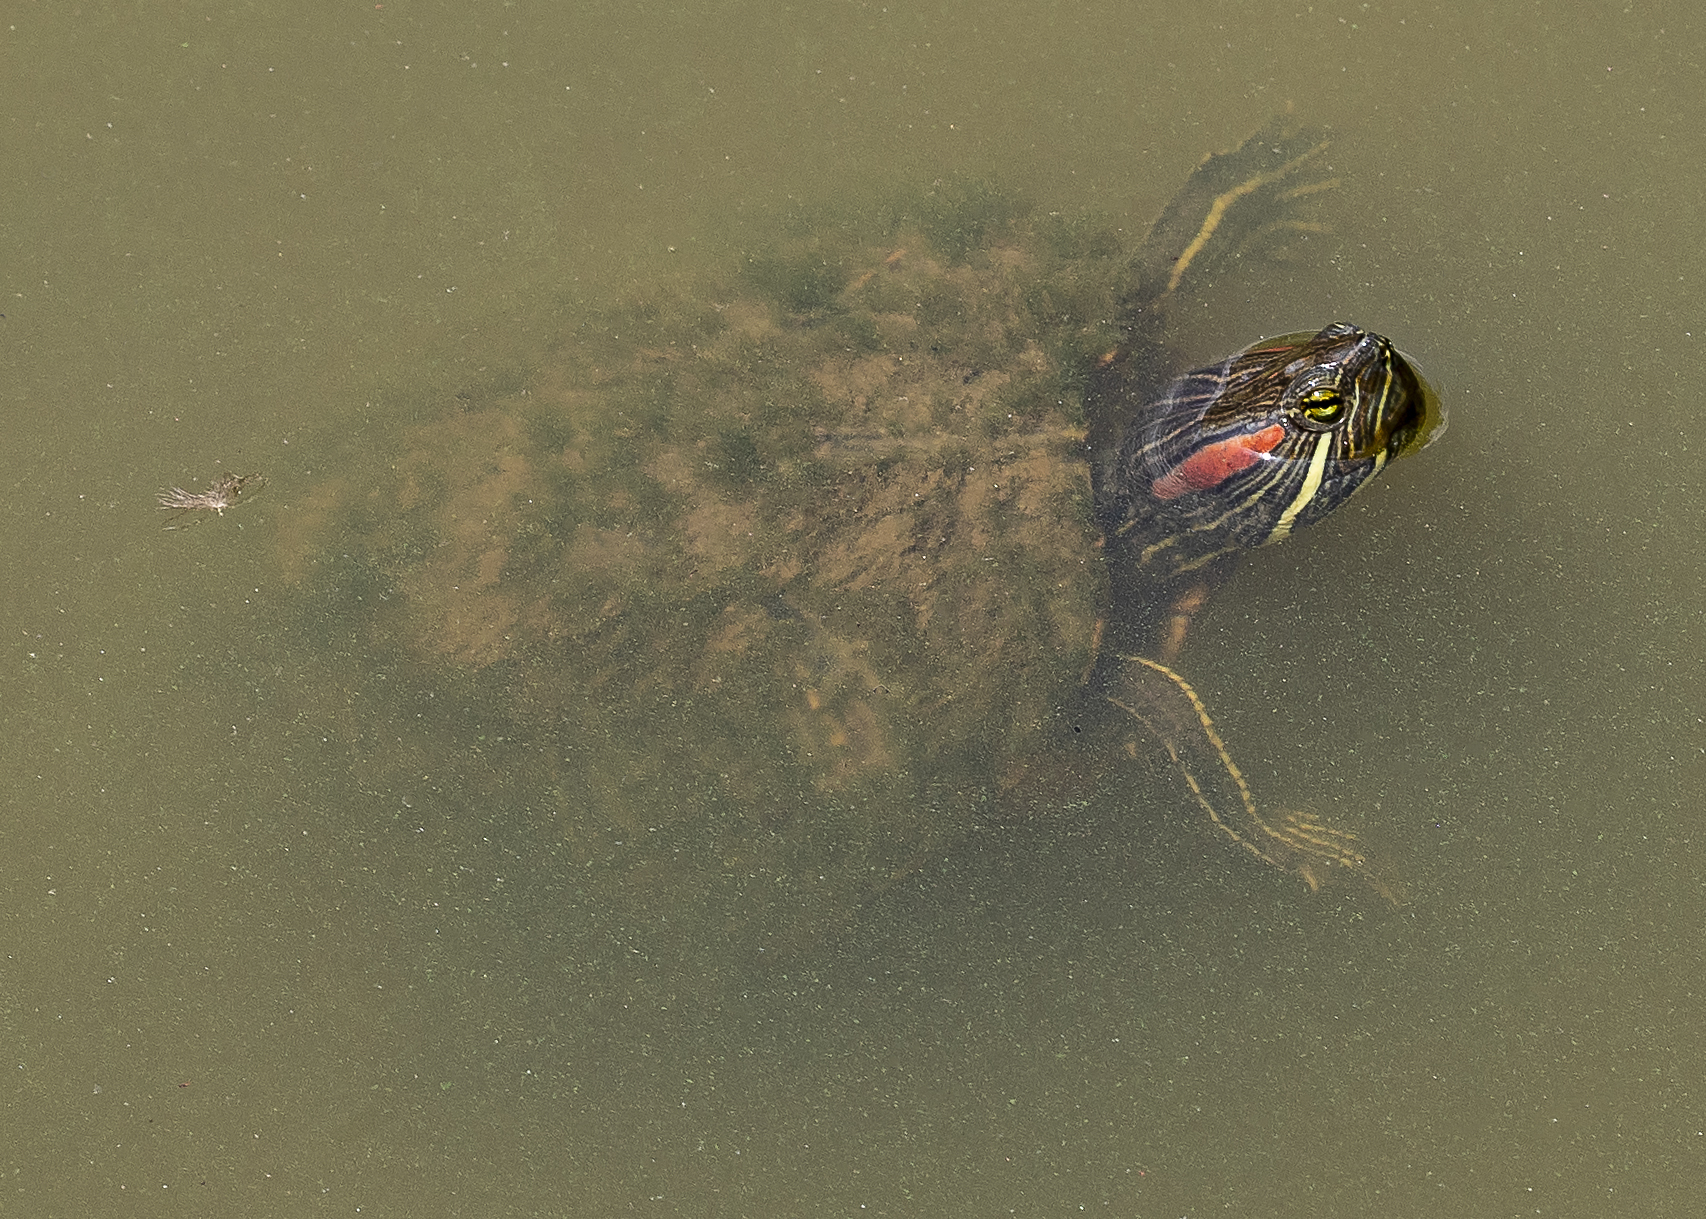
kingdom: Animalia
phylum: Chordata
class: Testudines
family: Emydidae
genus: Trachemys
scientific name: Trachemys scripta
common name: Slider
